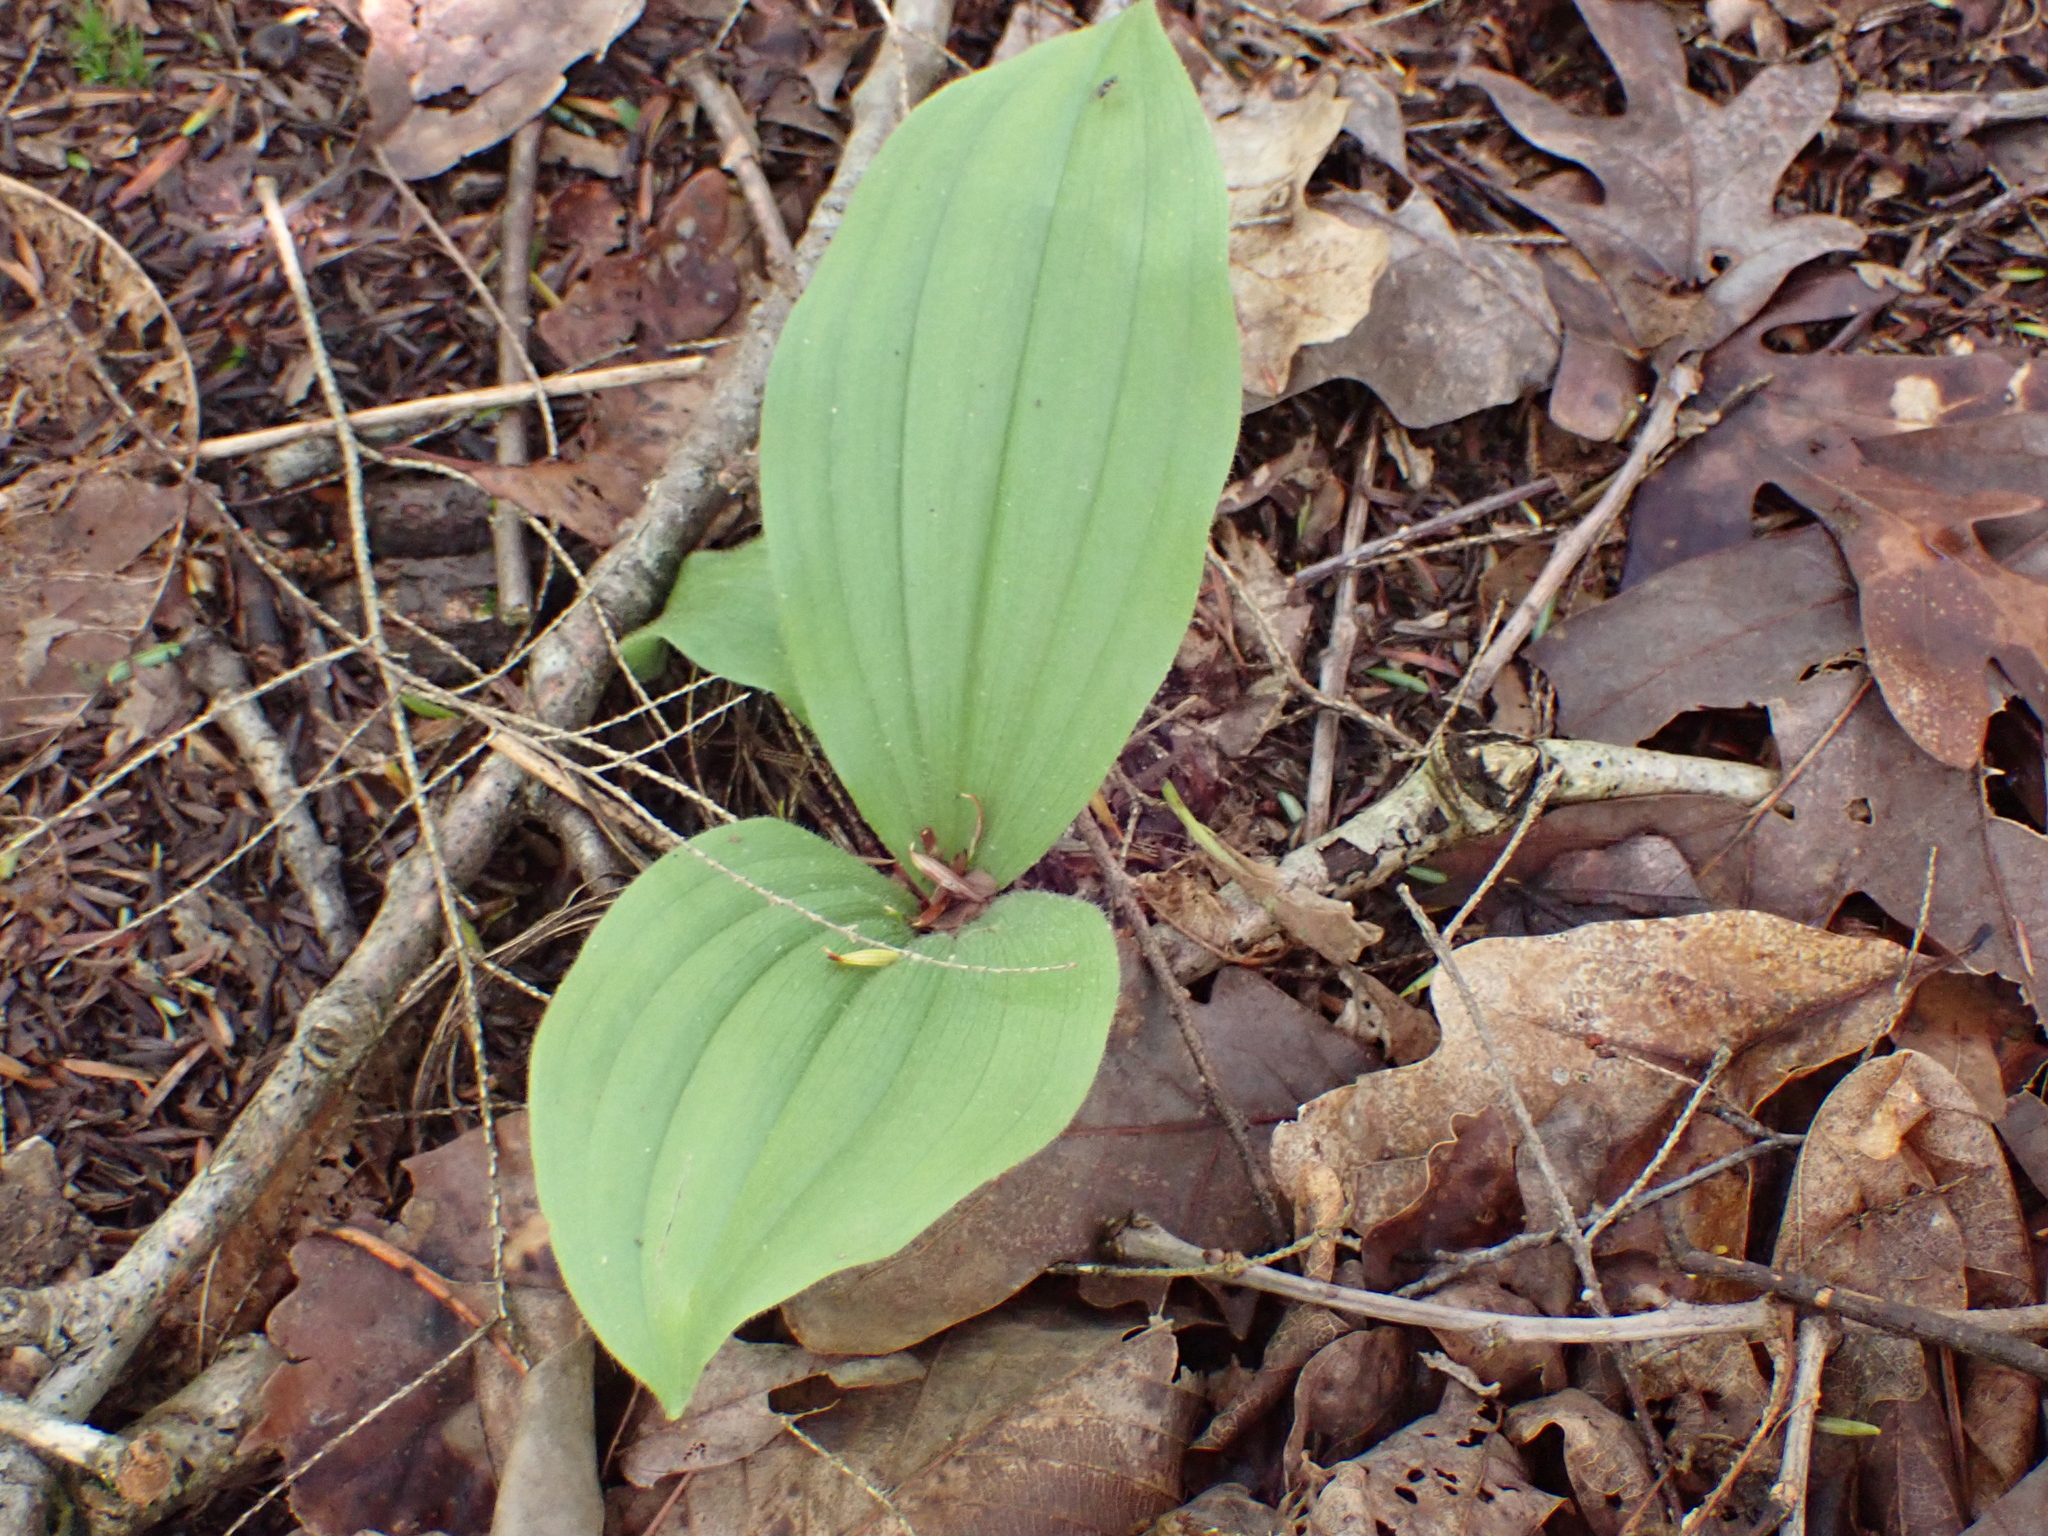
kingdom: Plantae
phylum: Tracheophyta
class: Liliopsida
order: Asparagales
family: Orchidaceae
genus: Cypripedium
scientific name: Cypripedium acaule
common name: Pink lady's-slipper
